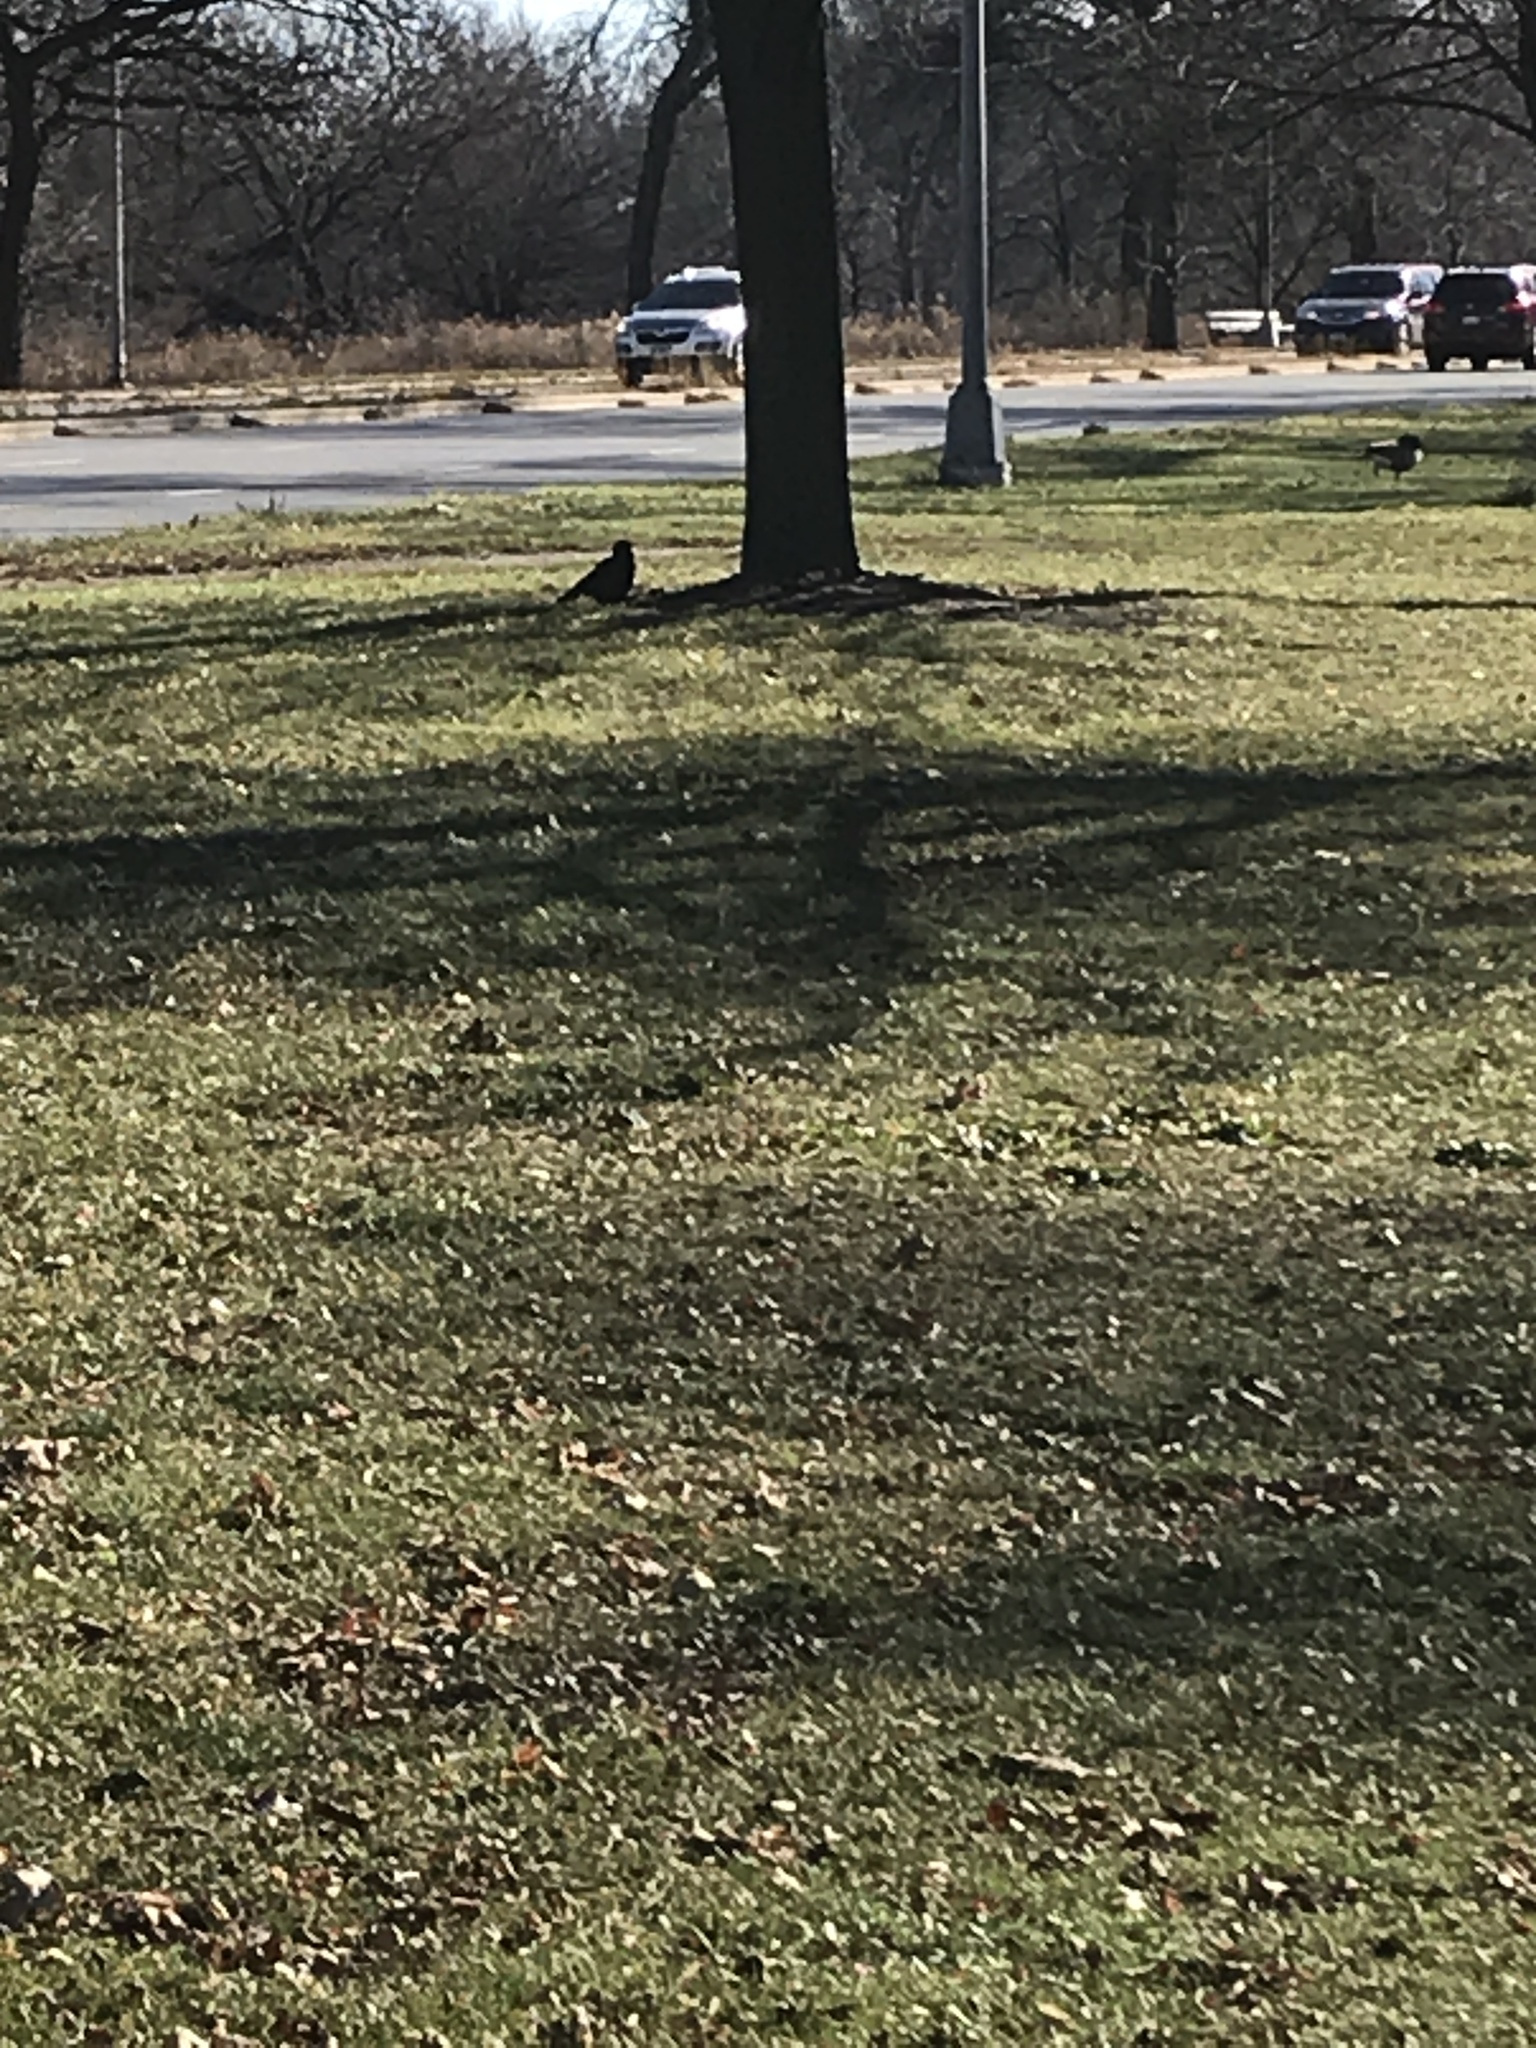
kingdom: Animalia
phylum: Chordata
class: Aves
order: Passeriformes
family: Corvidae
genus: Corvus
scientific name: Corvus brachyrhynchos
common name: American crow
